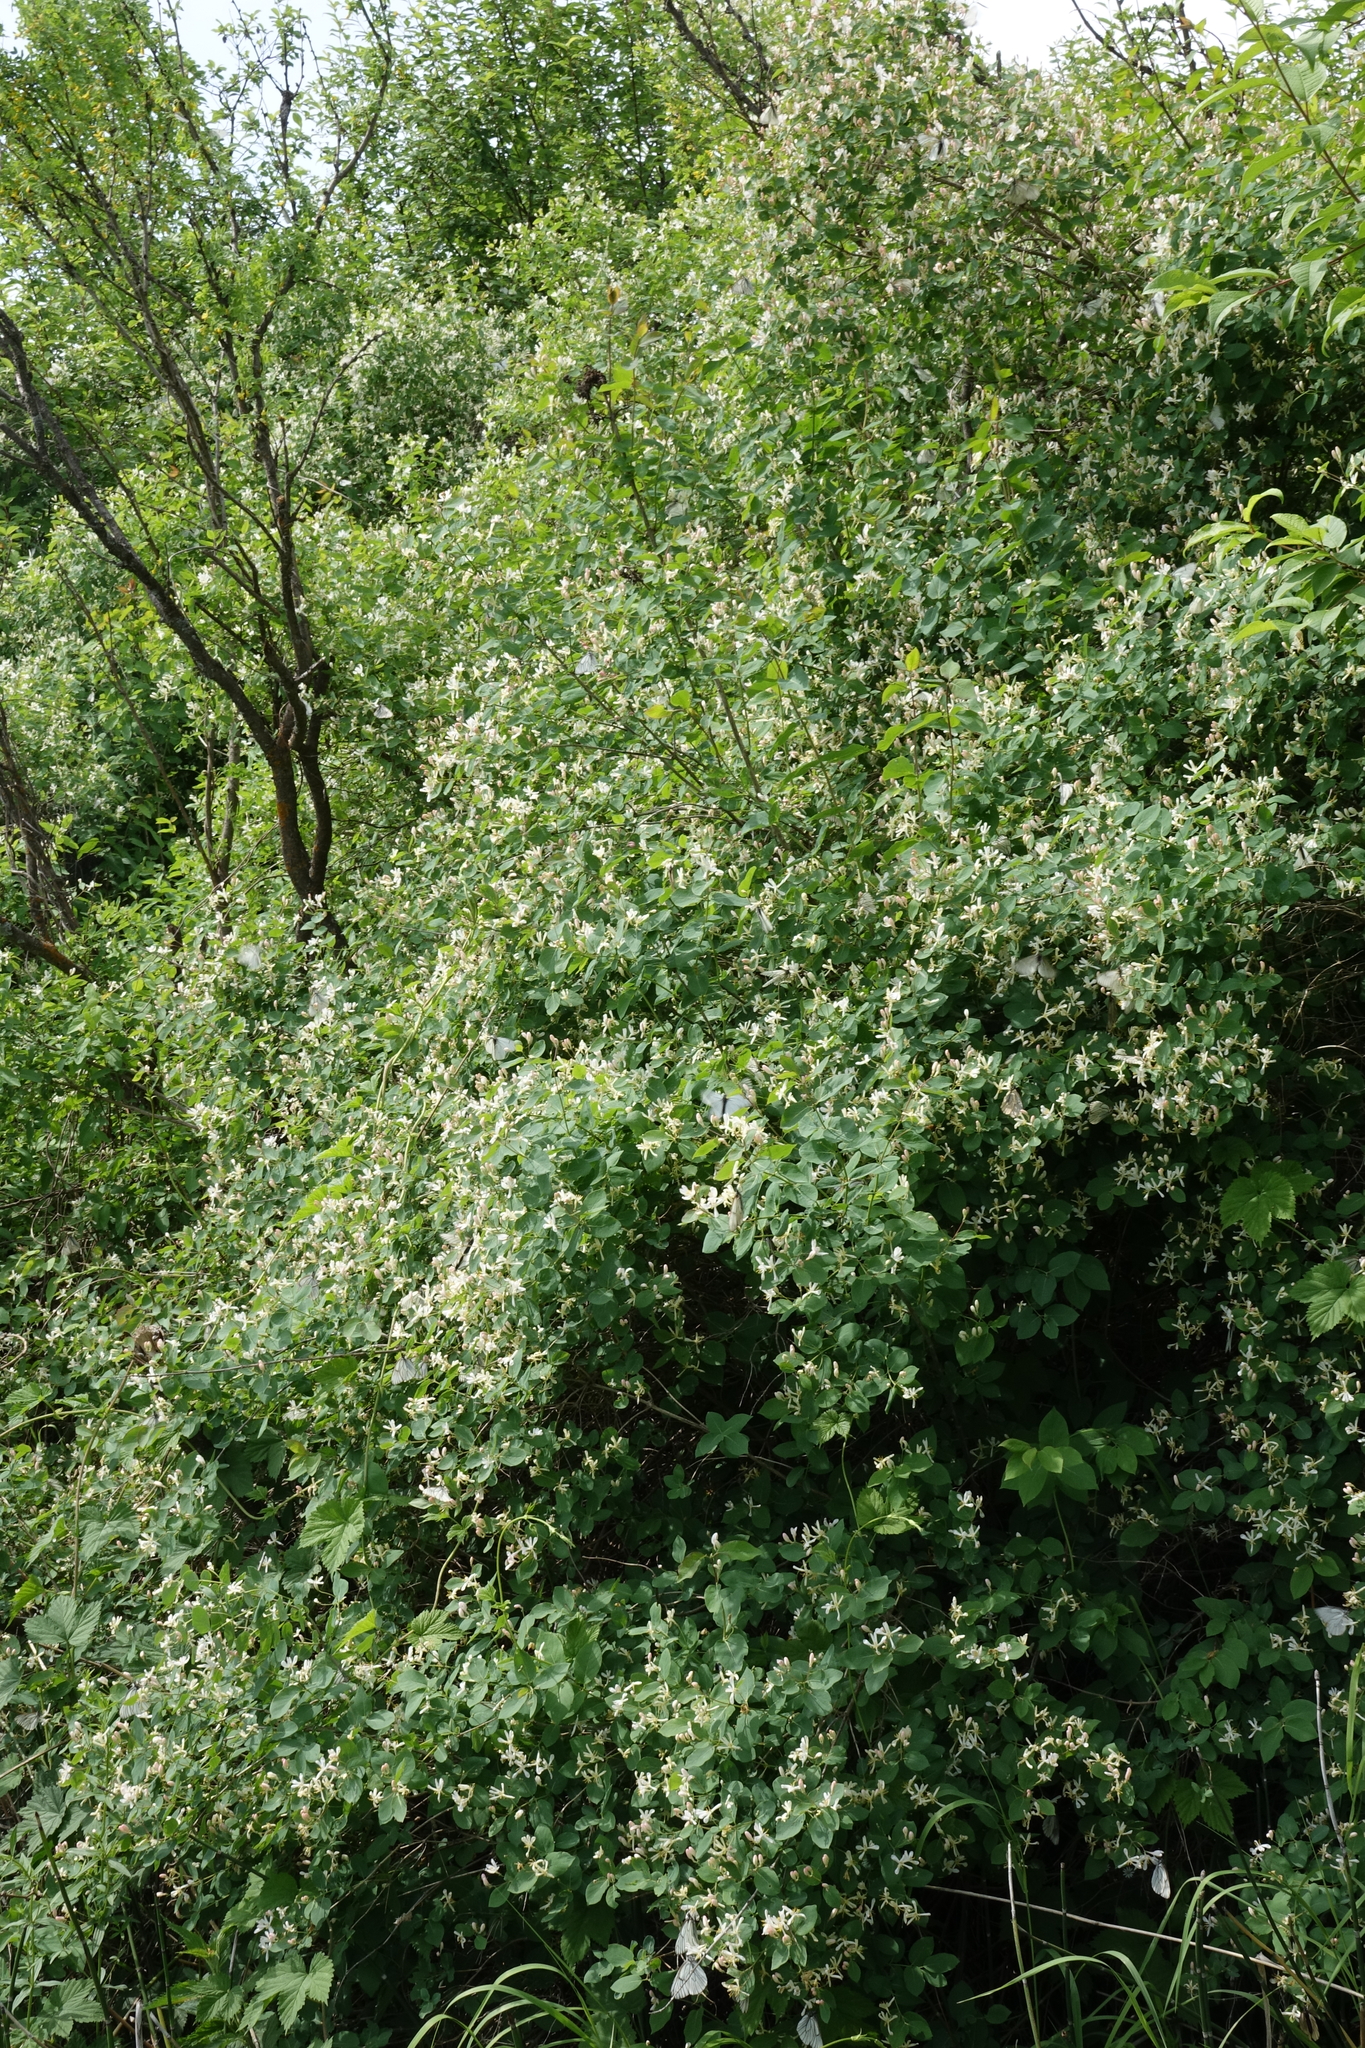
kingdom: Plantae
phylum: Tracheophyta
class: Magnoliopsida
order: Dipsacales
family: Caprifoliaceae
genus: Lonicera
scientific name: Lonicera tatarica
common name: Tatarian honeysuckle
